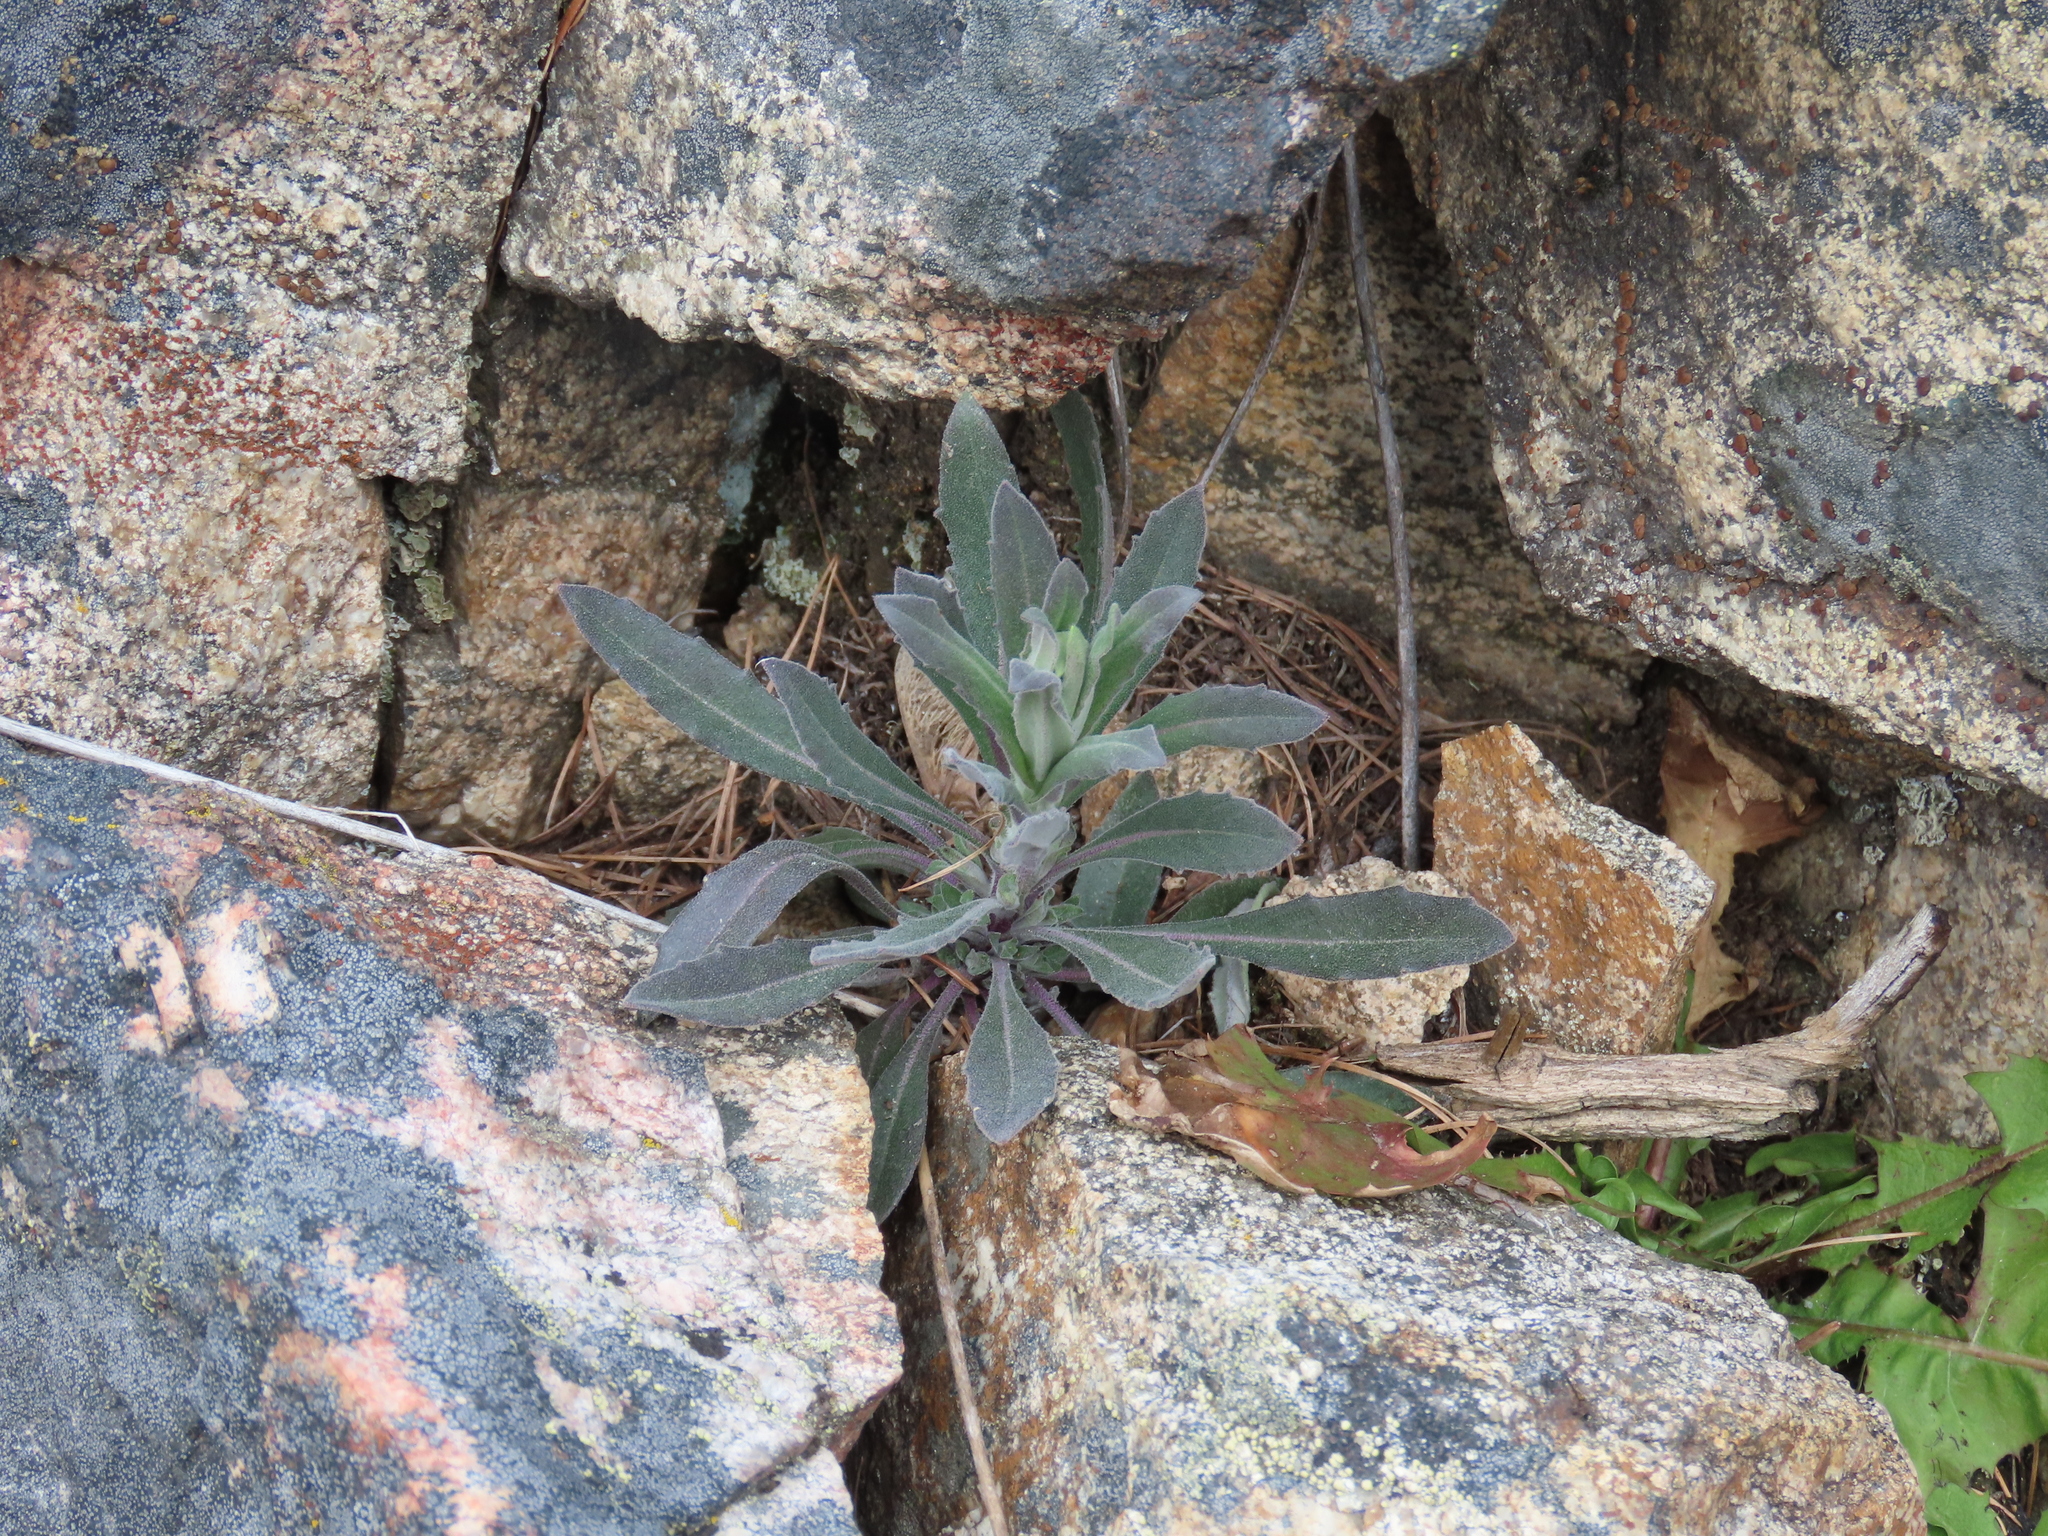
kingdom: Plantae
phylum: Tracheophyta
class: Magnoliopsida
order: Brassicales
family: Brassicaceae
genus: Boechera
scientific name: Boechera retrofracta
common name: Dangling suncress
